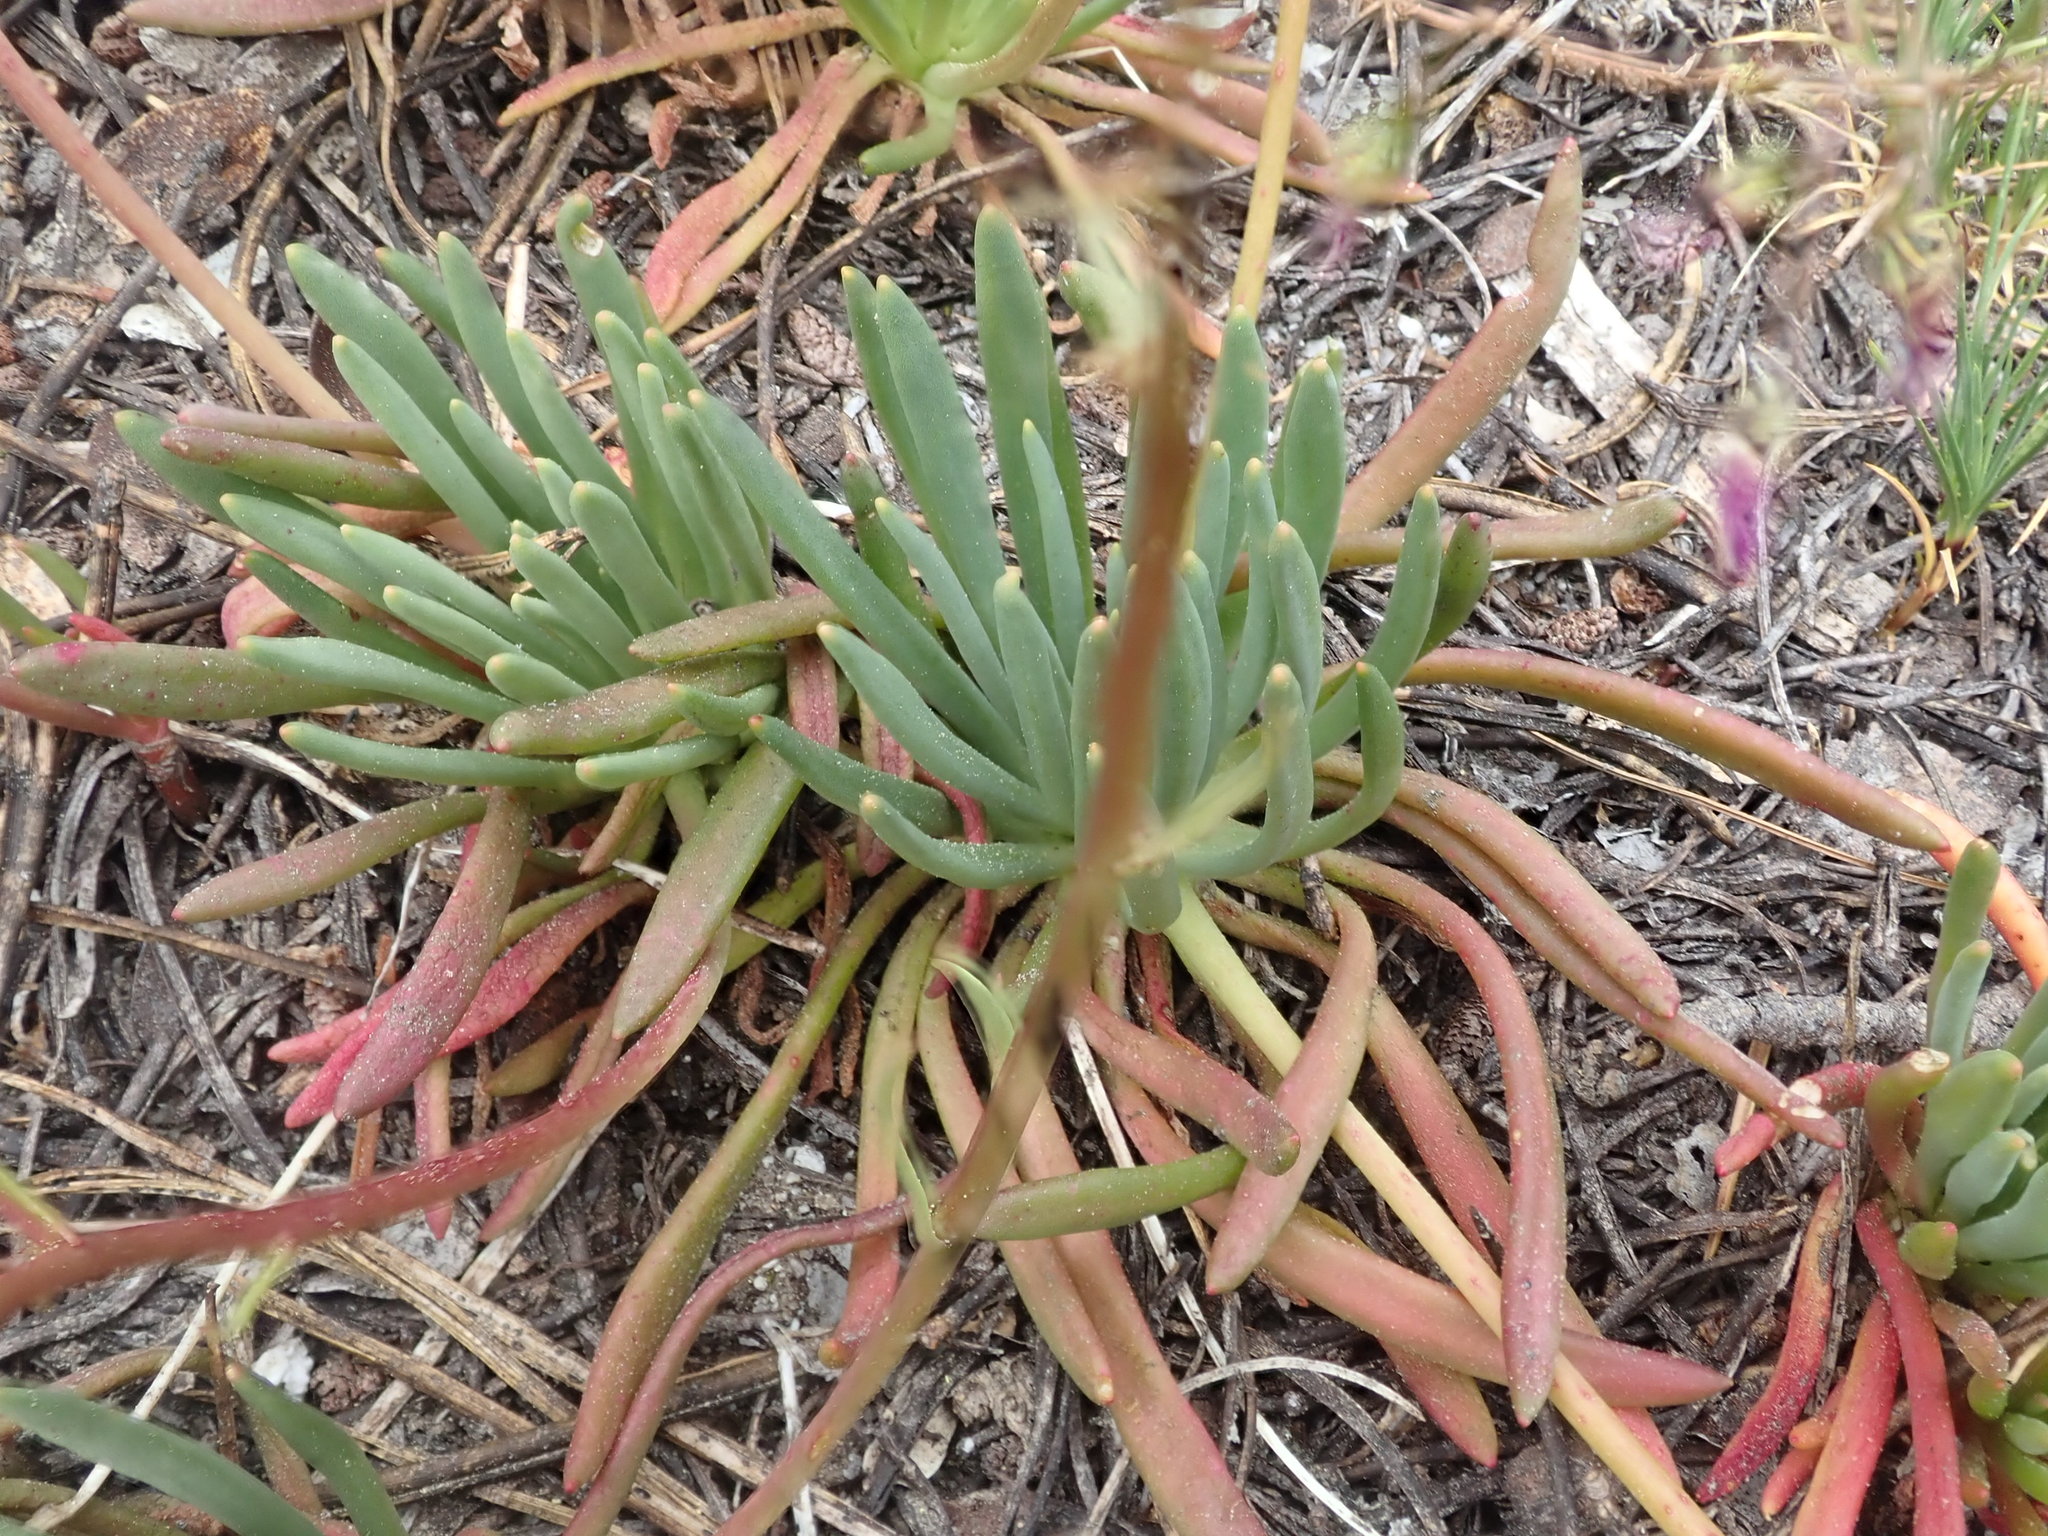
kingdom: Plantae
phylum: Tracheophyta
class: Magnoliopsida
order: Caryophyllales
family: Montiaceae
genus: Lewisia
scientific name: Lewisia leeana
